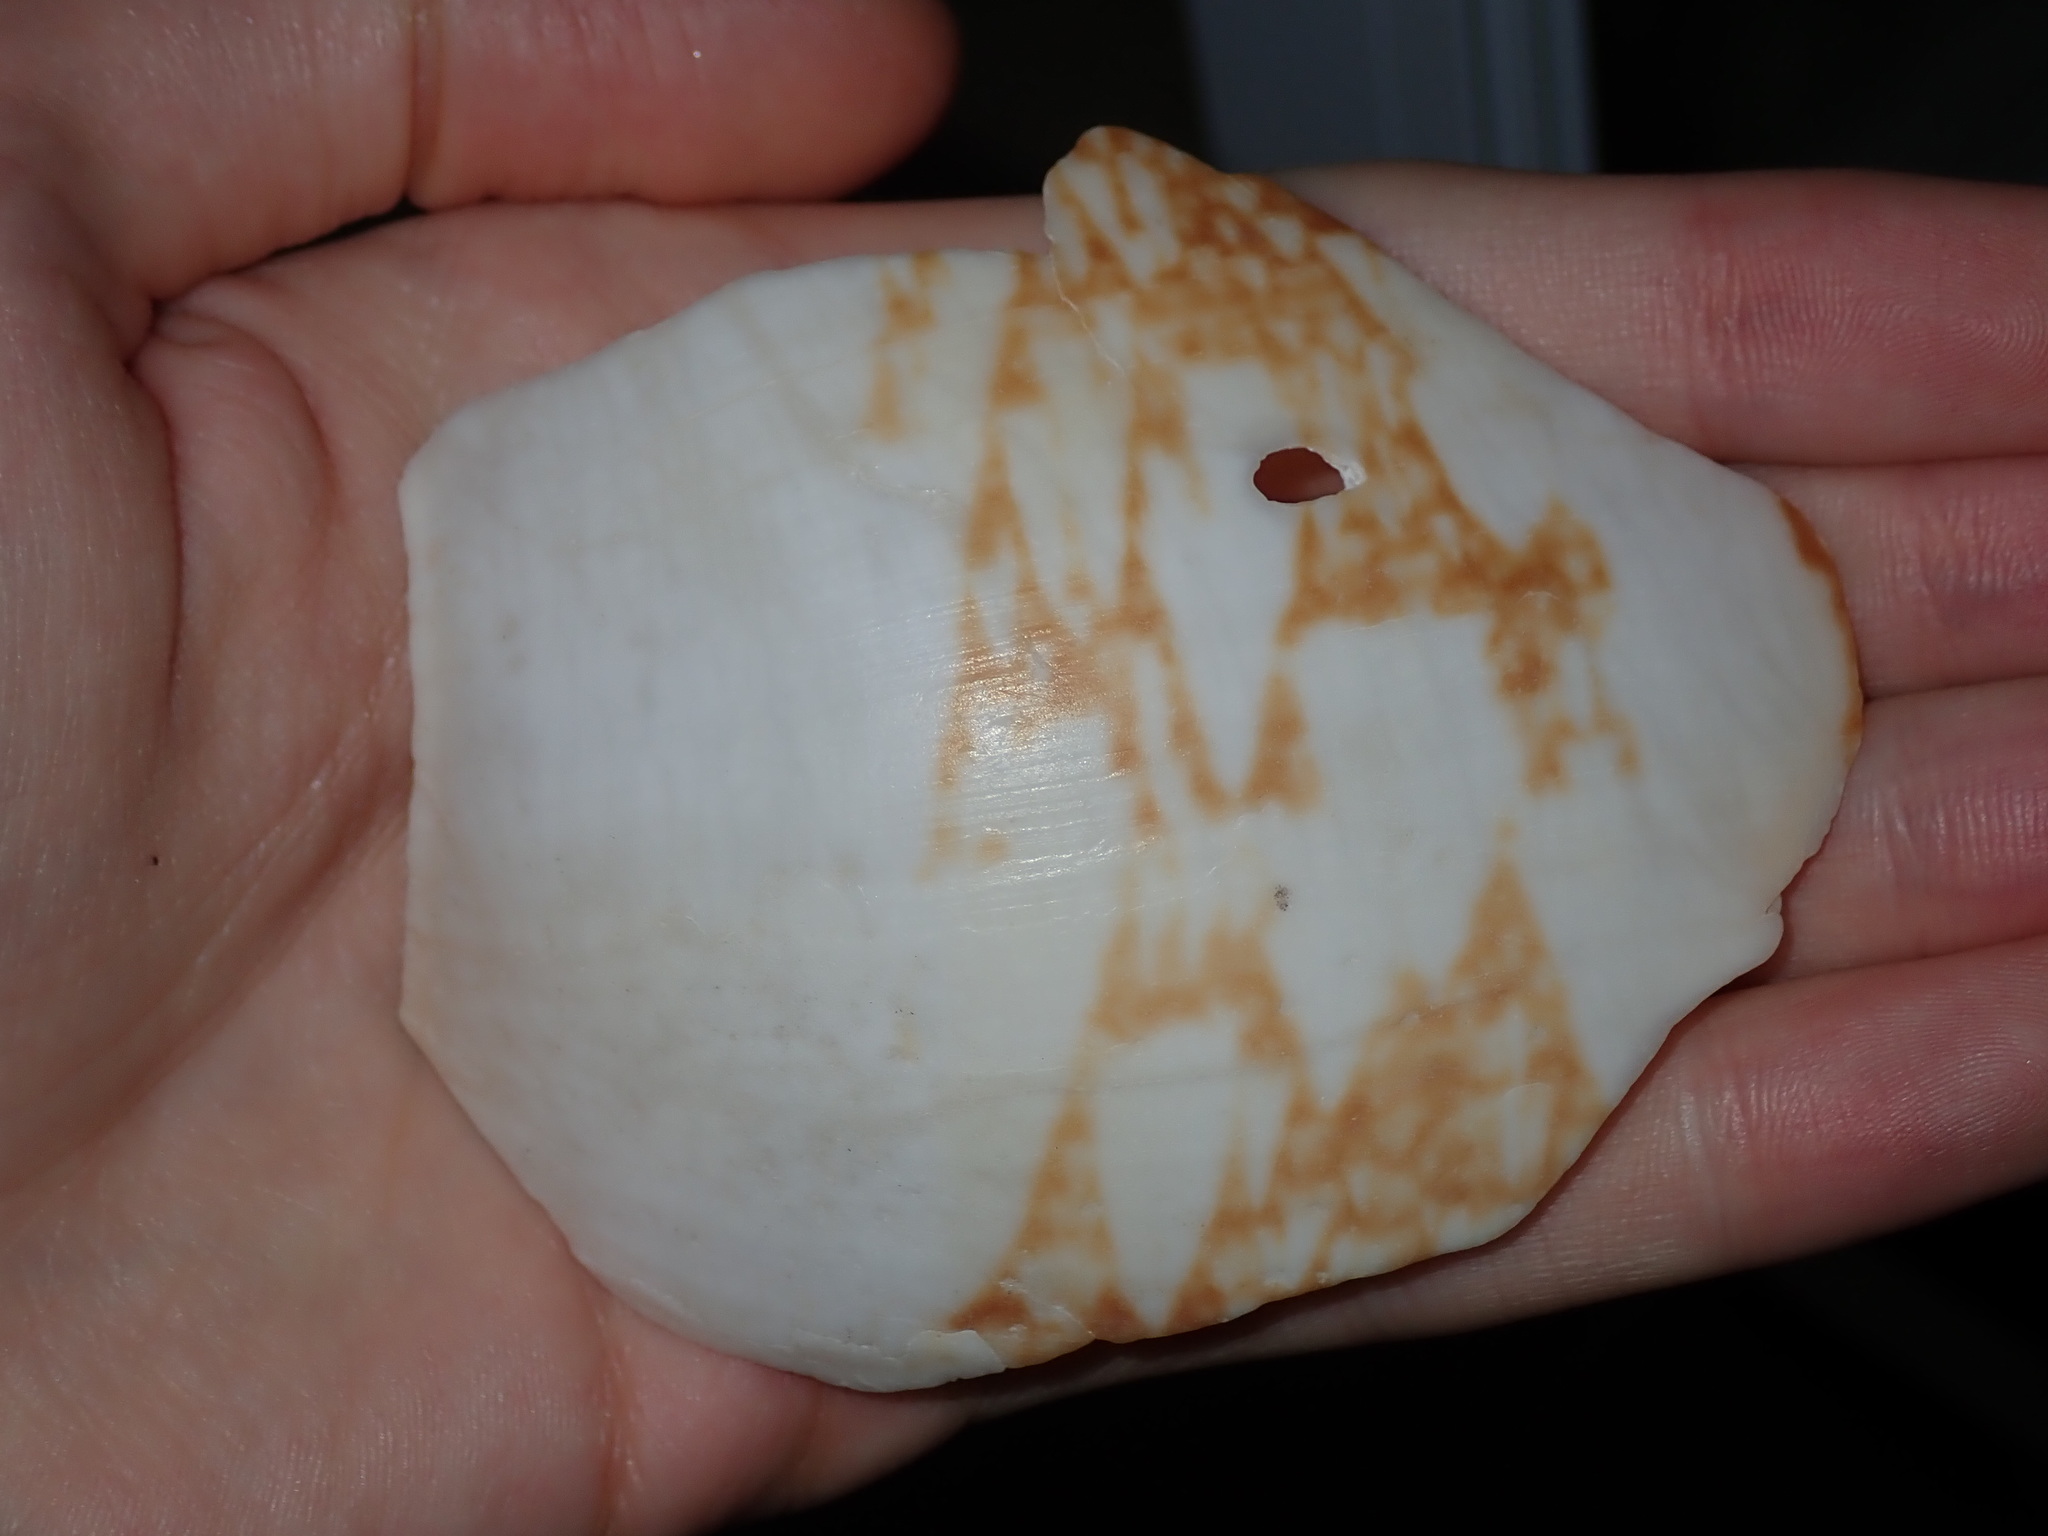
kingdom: Animalia
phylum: Mollusca
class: Gastropoda
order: Neogastropoda
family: Volutidae
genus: Livonia
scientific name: Livonia mammilla
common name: False melon volute
